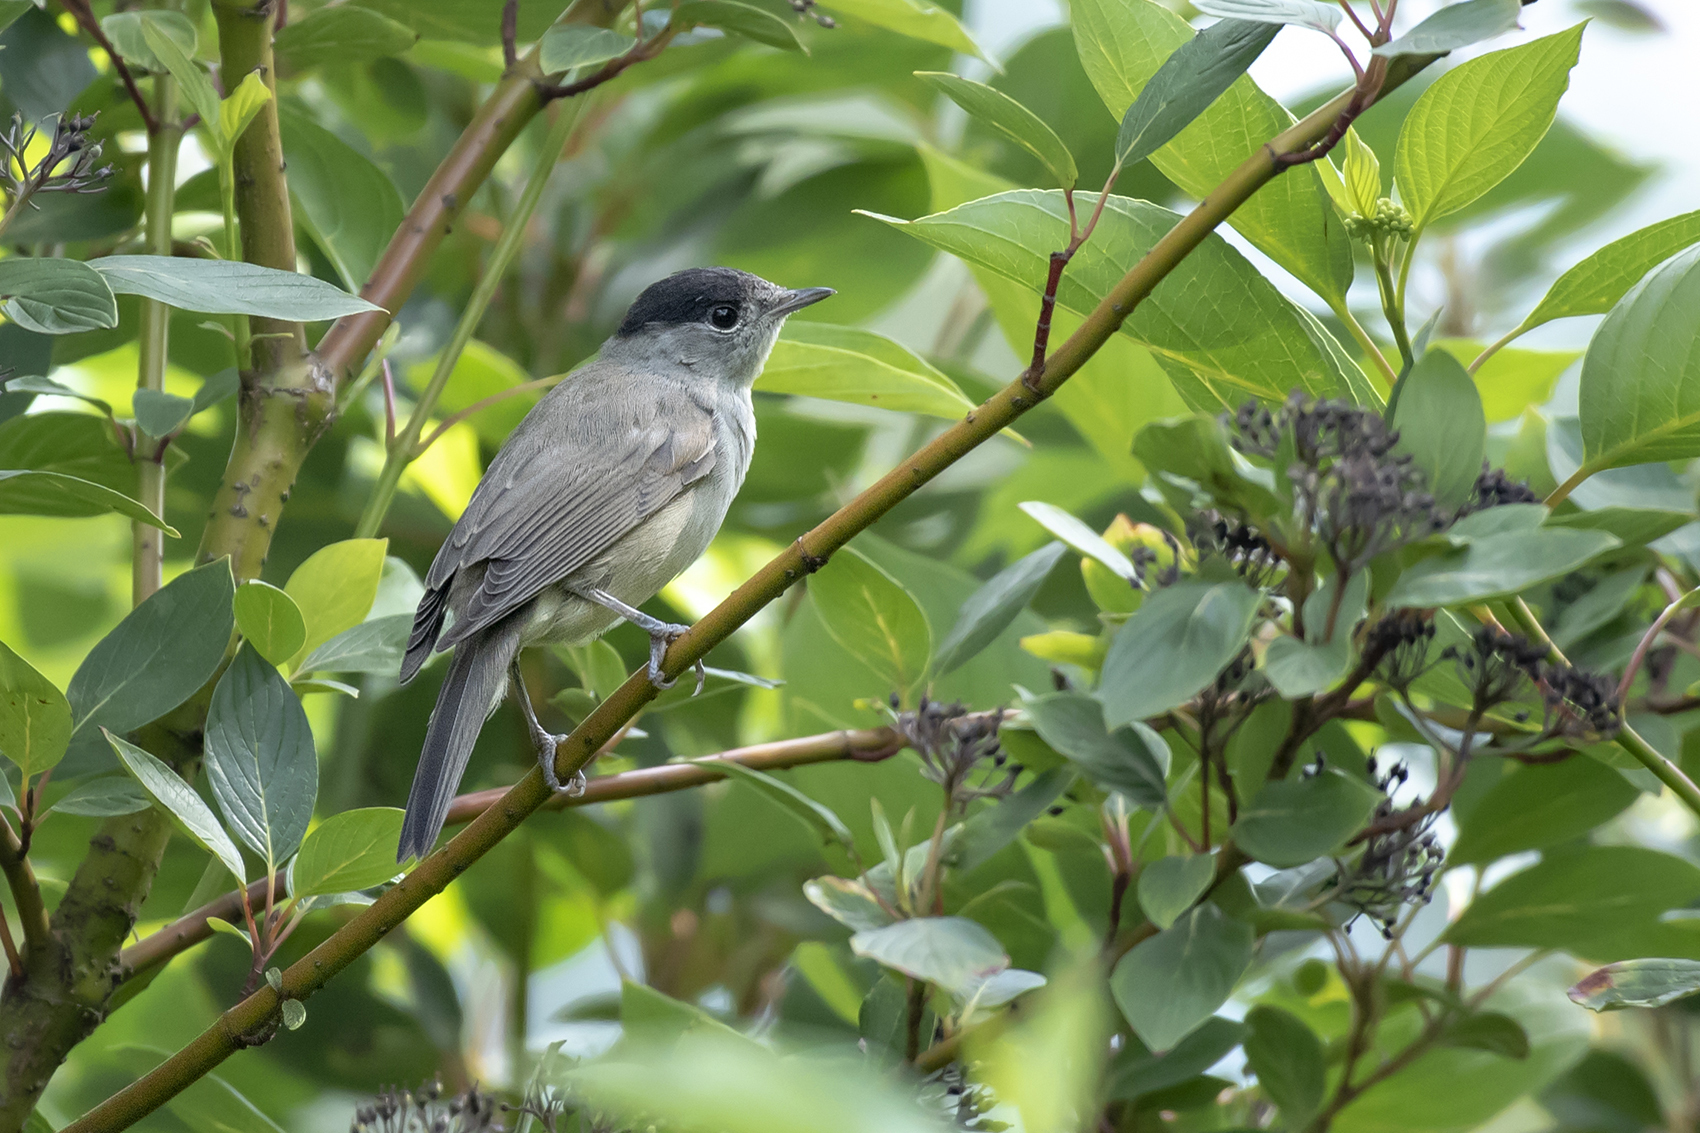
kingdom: Animalia
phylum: Chordata
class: Aves
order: Passeriformes
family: Sylviidae
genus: Sylvia
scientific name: Sylvia atricapilla
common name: Eurasian blackcap
